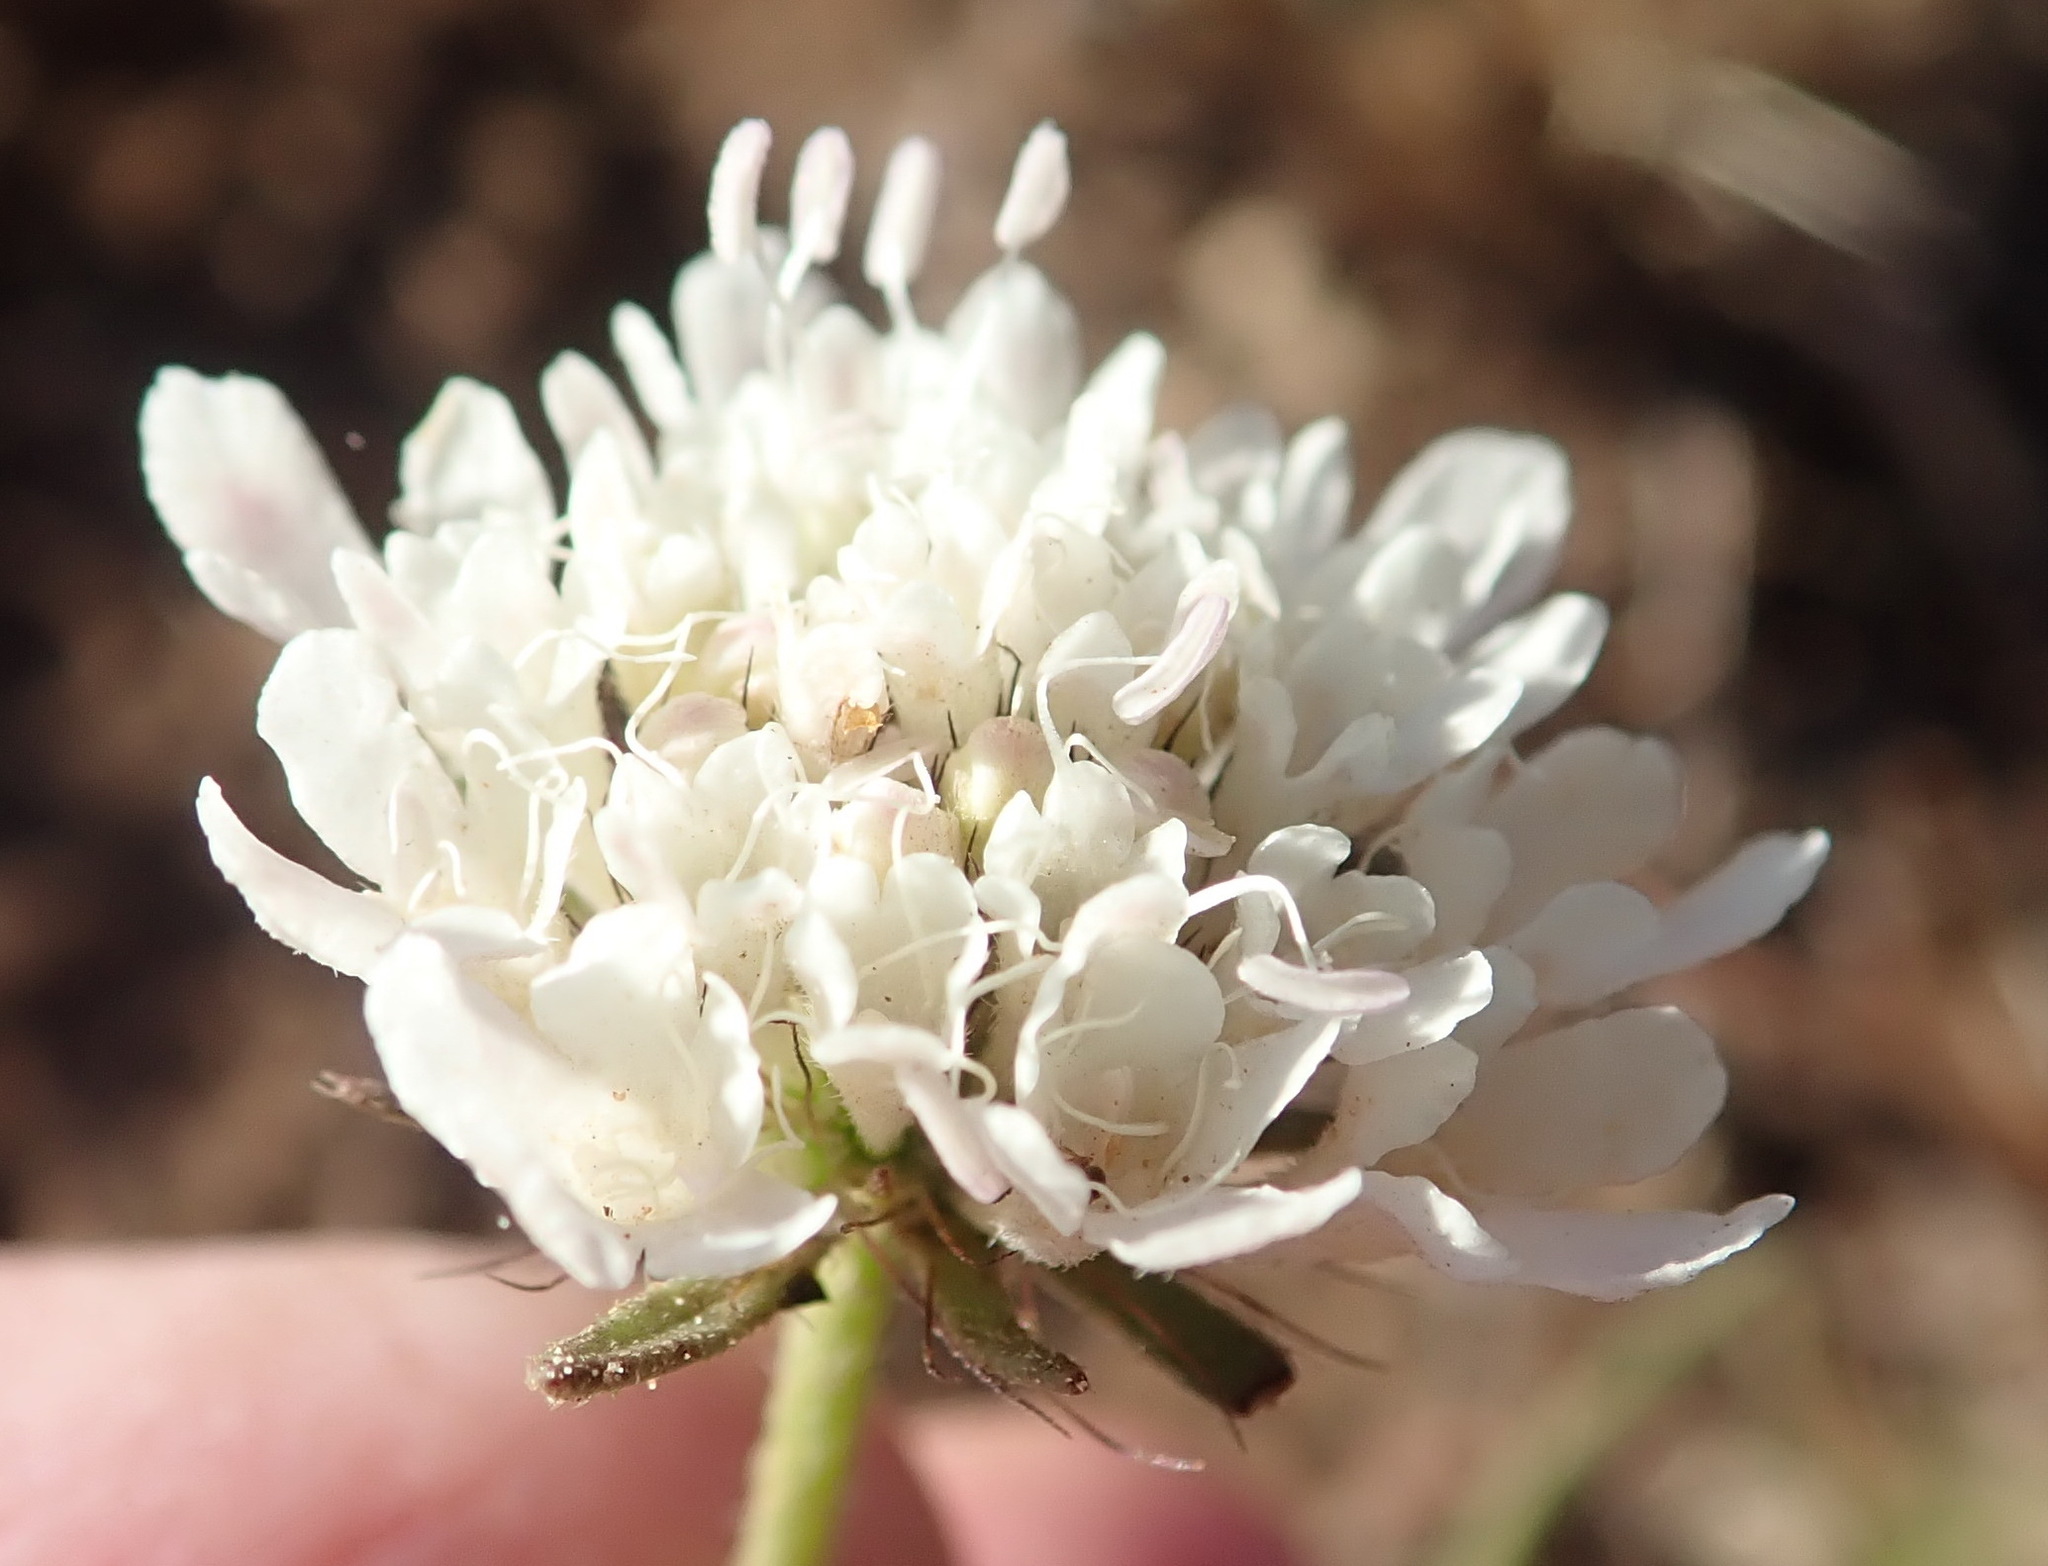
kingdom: Plantae
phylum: Tracheophyta
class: Magnoliopsida
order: Dipsacales
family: Caprifoliaceae
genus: Scabiosa
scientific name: Scabiosa columbaria
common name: Small scabious
